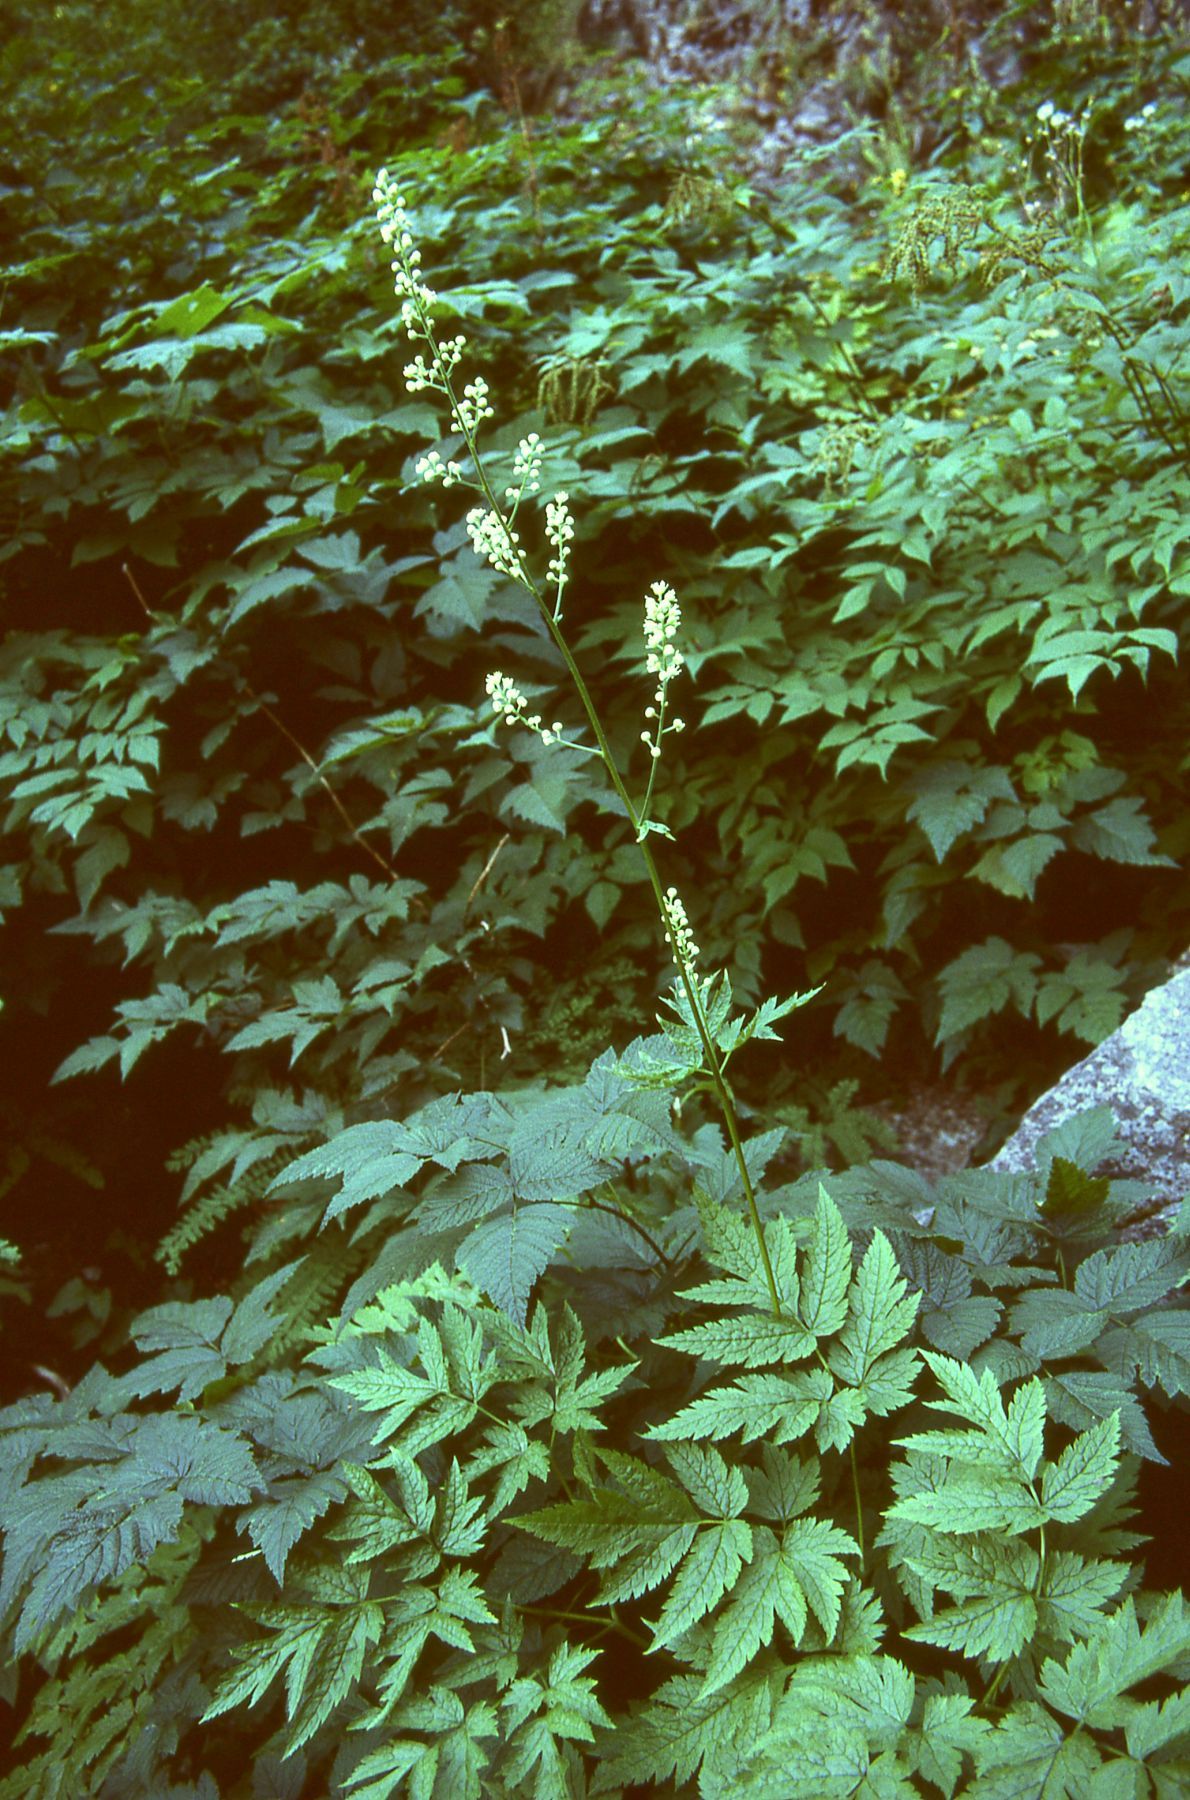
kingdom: Plantae
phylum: Tracheophyta
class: Magnoliopsida
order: Ranunculales
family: Ranunculaceae
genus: Actaea
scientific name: Actaea laciniata
